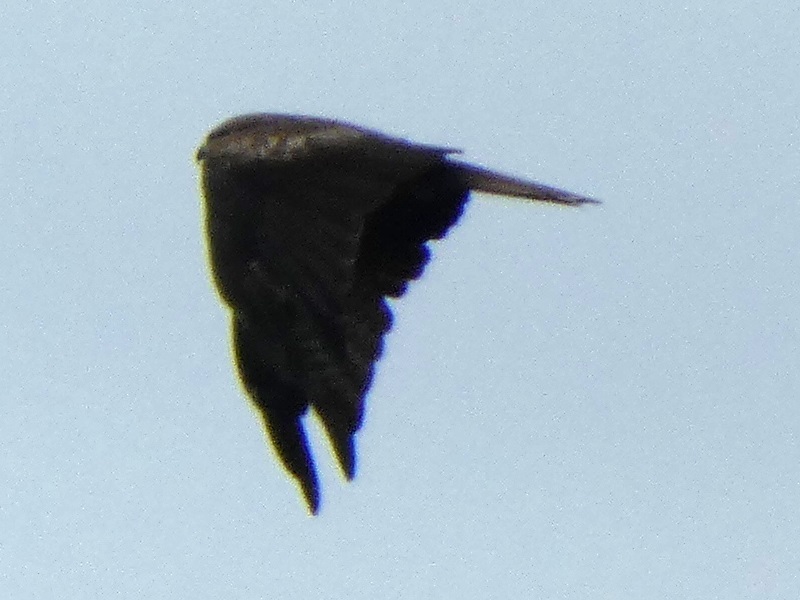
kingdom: Animalia
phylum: Chordata
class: Aves
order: Accipitriformes
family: Accipitridae
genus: Milvus
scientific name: Milvus migrans
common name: Black kite
